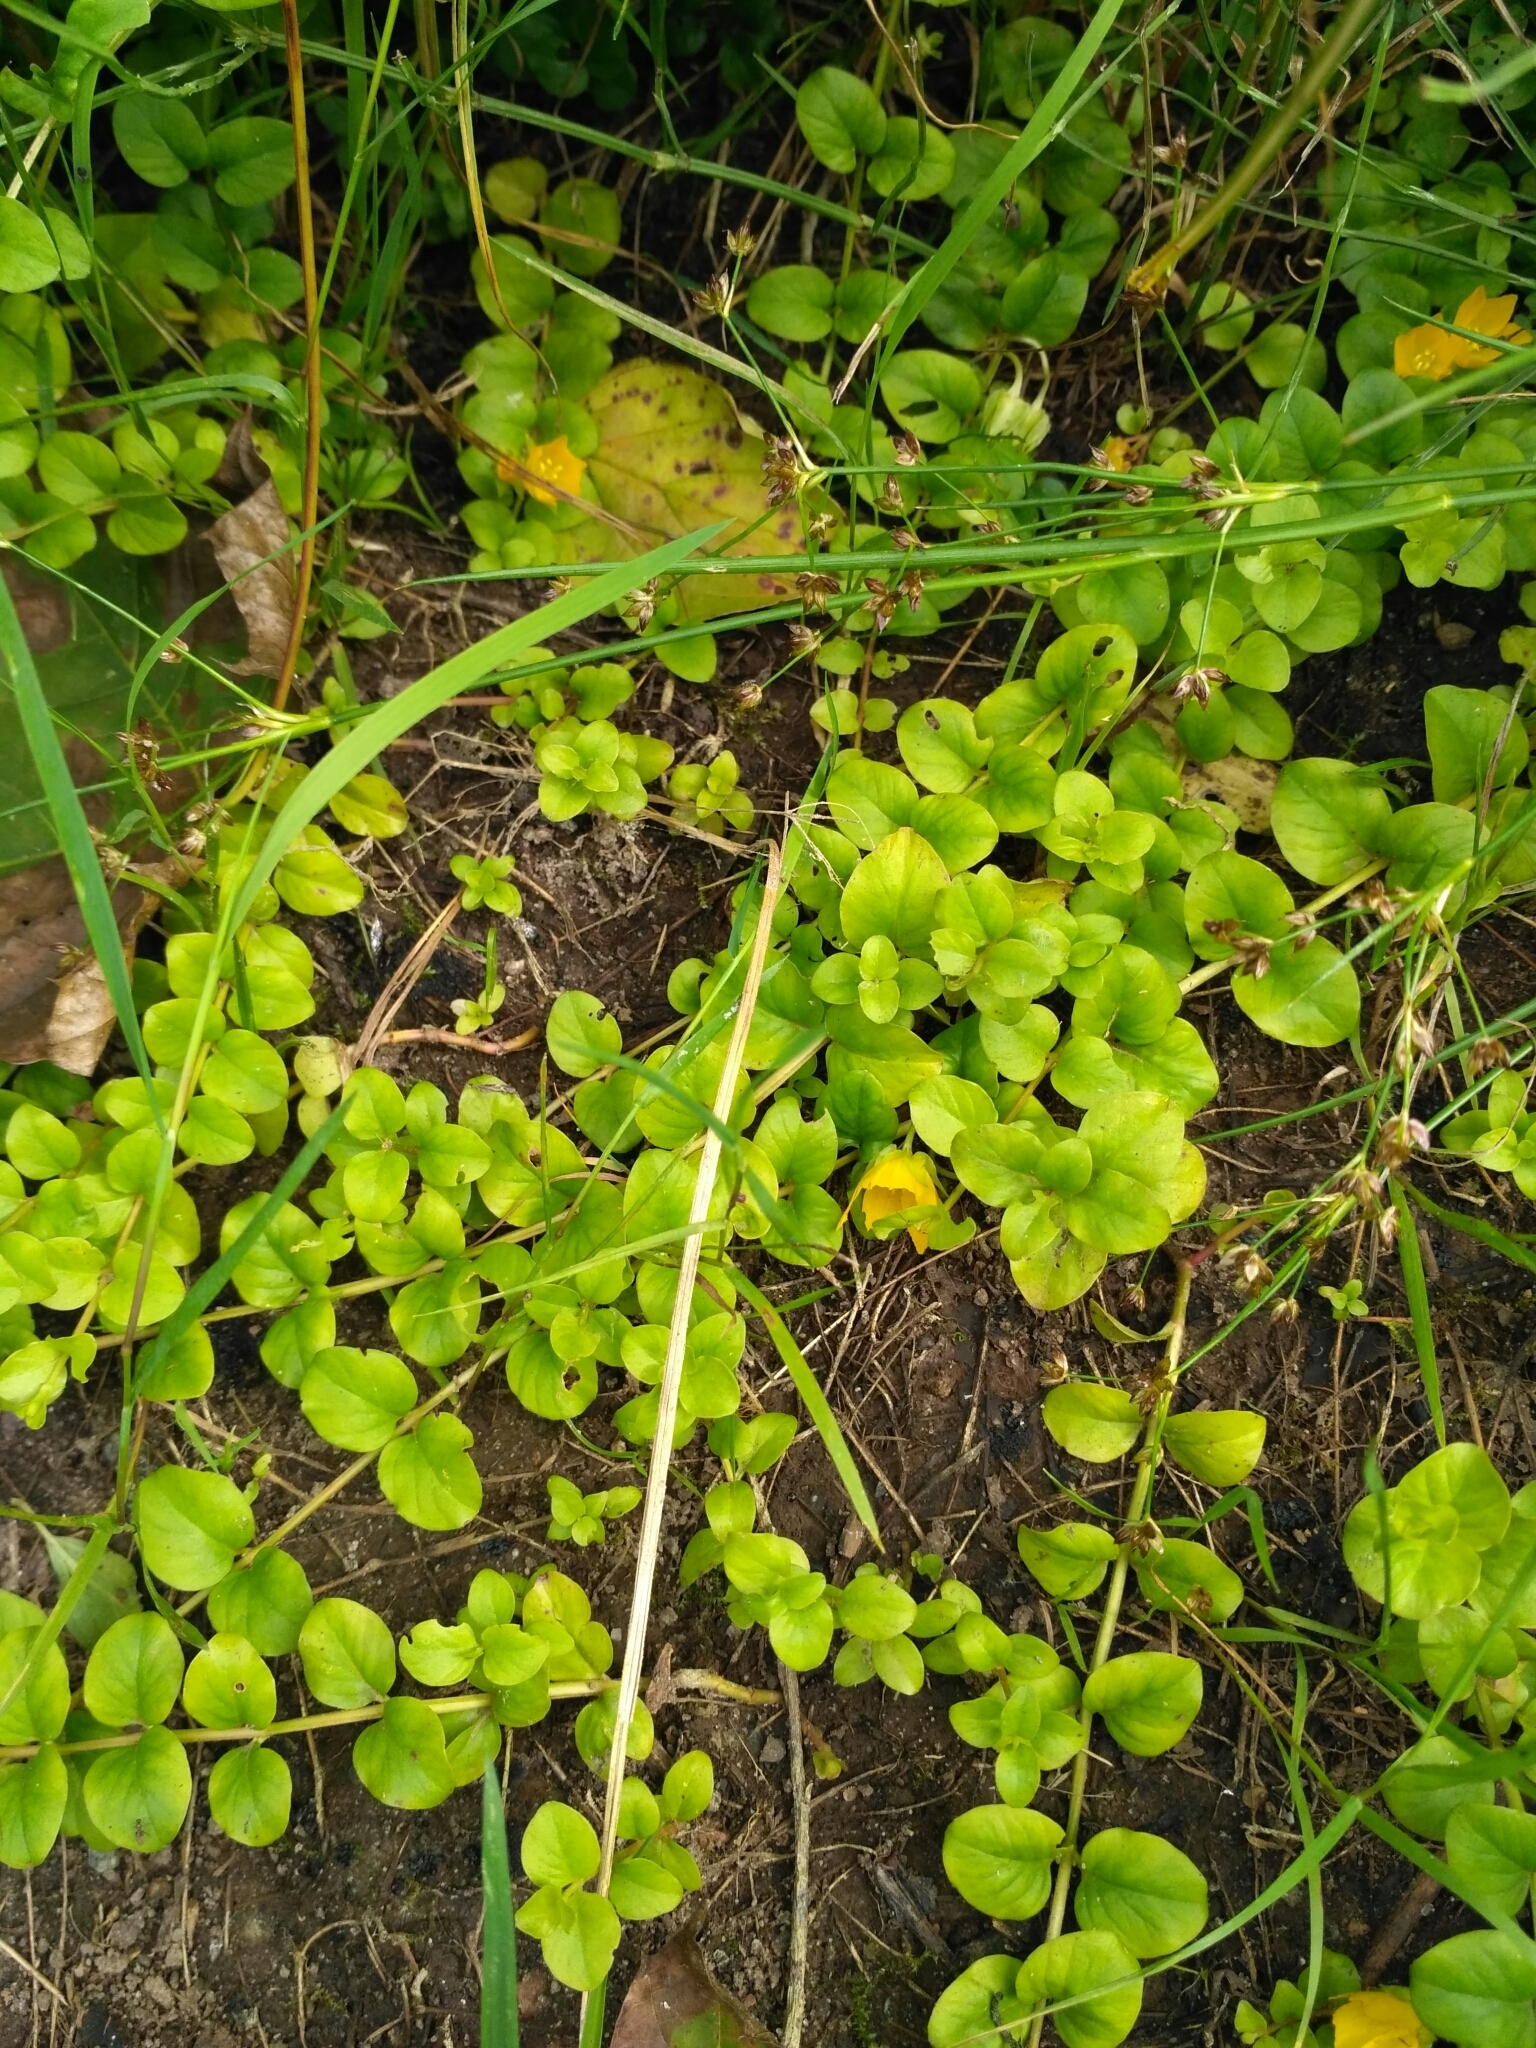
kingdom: Plantae
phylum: Tracheophyta
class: Magnoliopsida
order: Ericales
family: Primulaceae
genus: Lysimachia
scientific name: Lysimachia nummularia
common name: Moneywort
